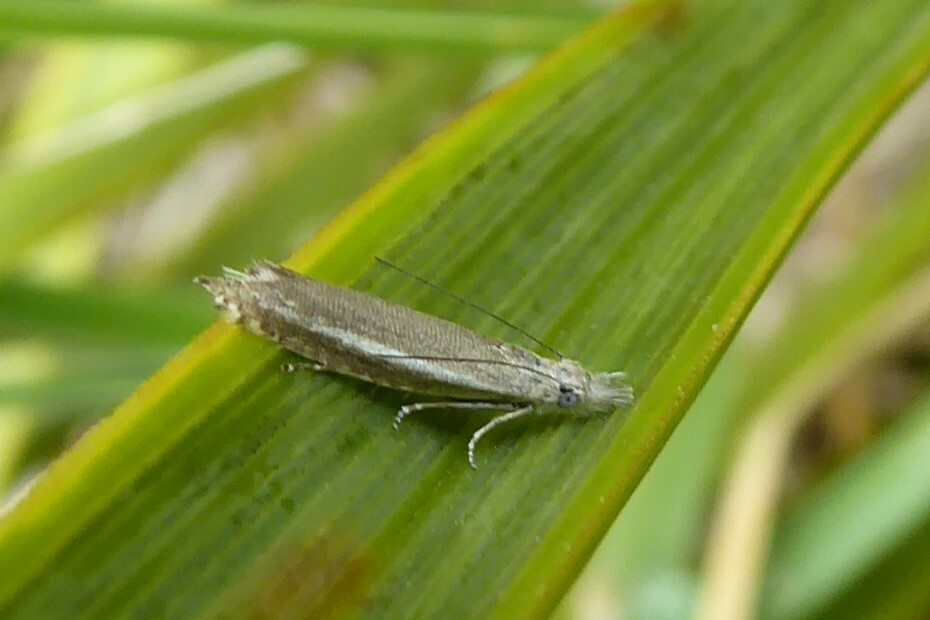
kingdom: Animalia
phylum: Arthropoda
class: Insecta
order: Lepidoptera
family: Glyphipterigidae
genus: Glyphipterix
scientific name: Glyphipterix barbata
